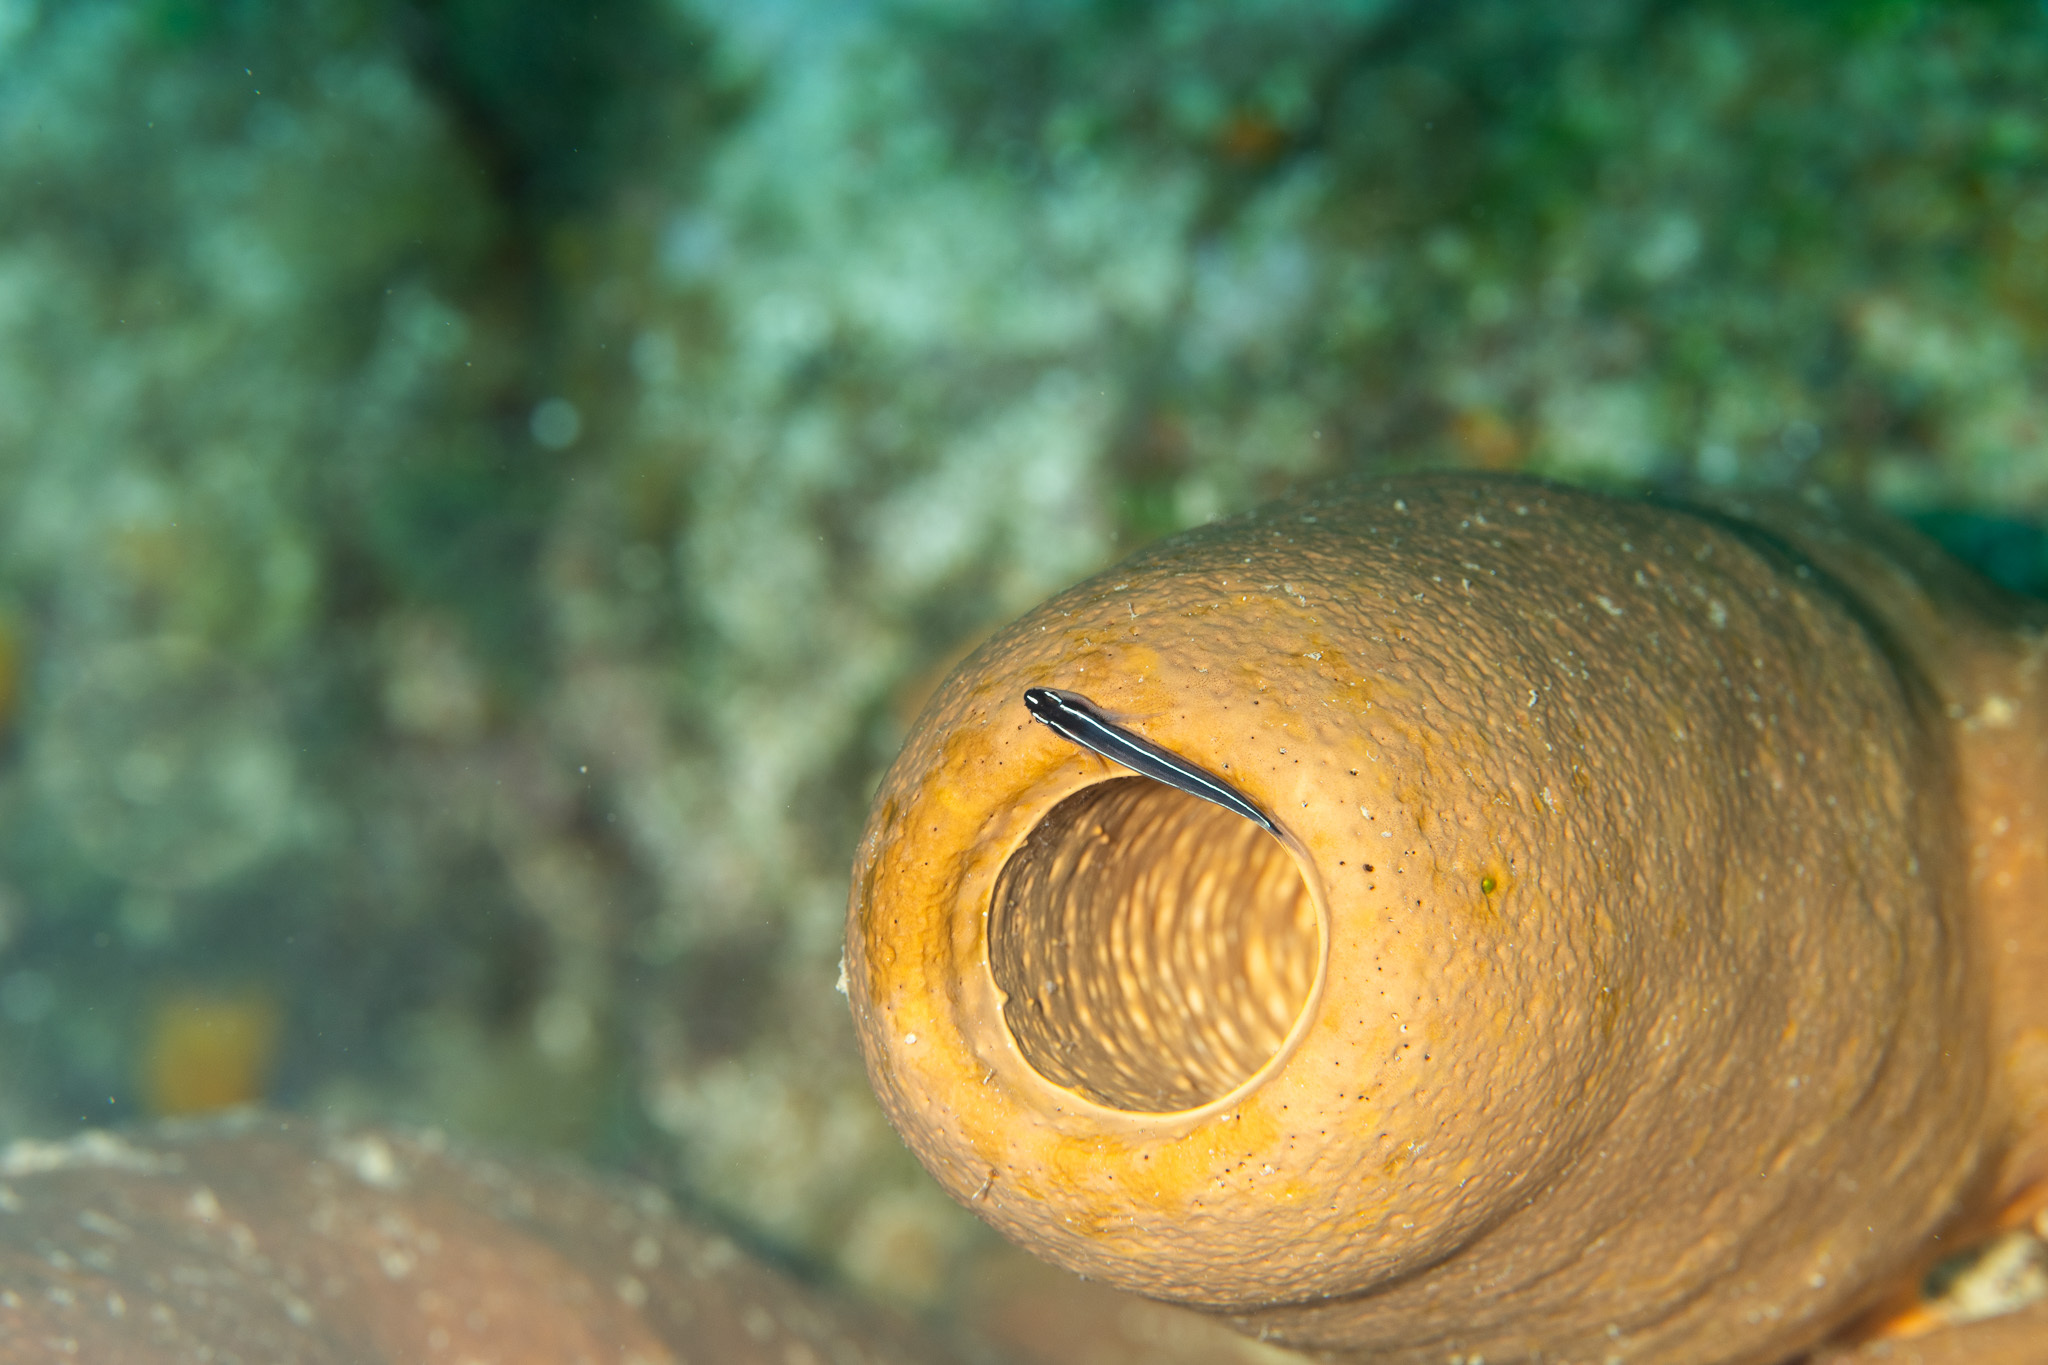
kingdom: Animalia
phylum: Chordata
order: Perciformes
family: Gobiidae
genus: Elacatinus
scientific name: Elacatinus lori
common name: Linesnout goby
